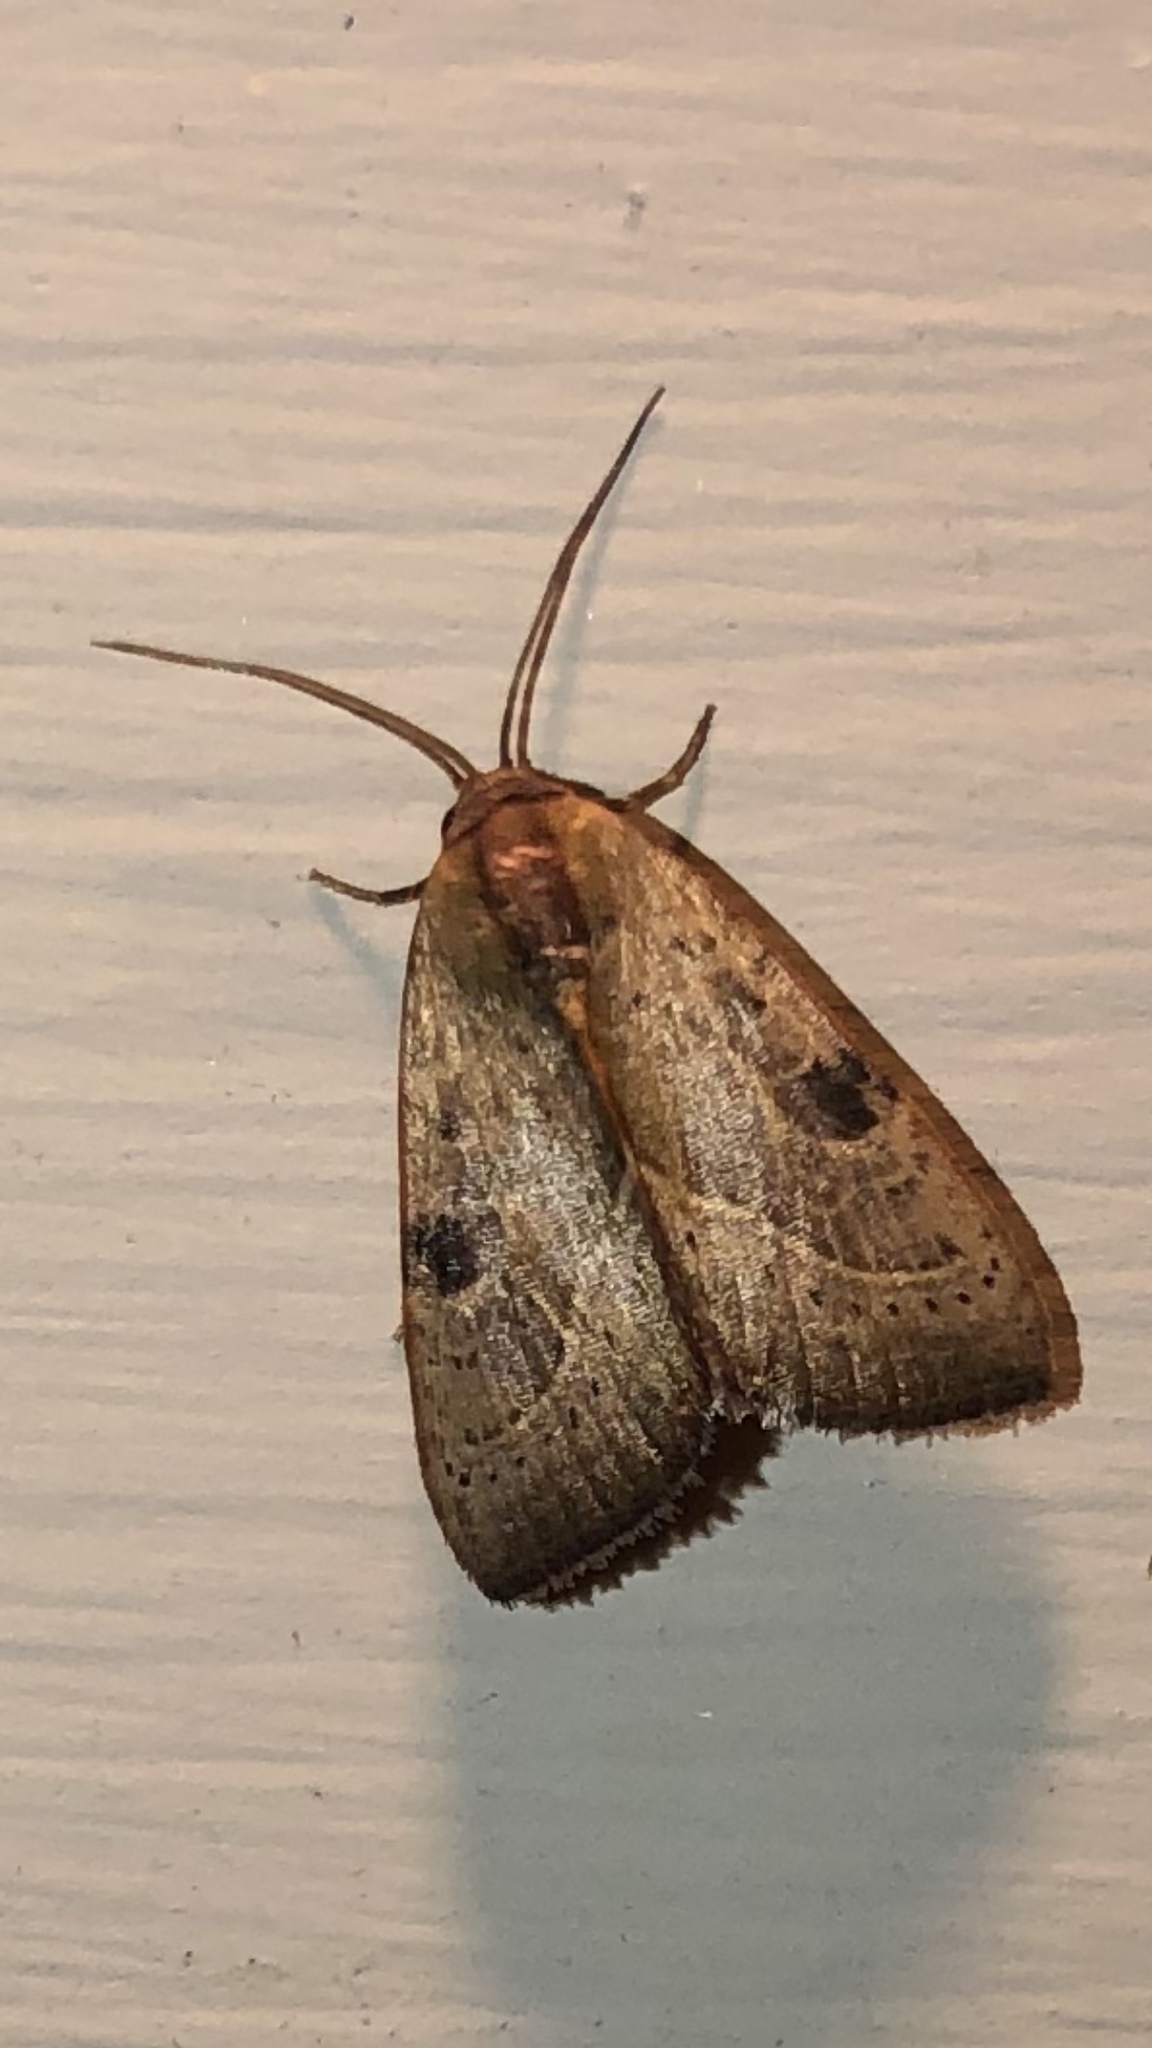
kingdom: Animalia
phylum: Arthropoda
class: Insecta
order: Lepidoptera
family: Noctuidae
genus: Galgula
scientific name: Galgula partita
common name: Wedgeling
